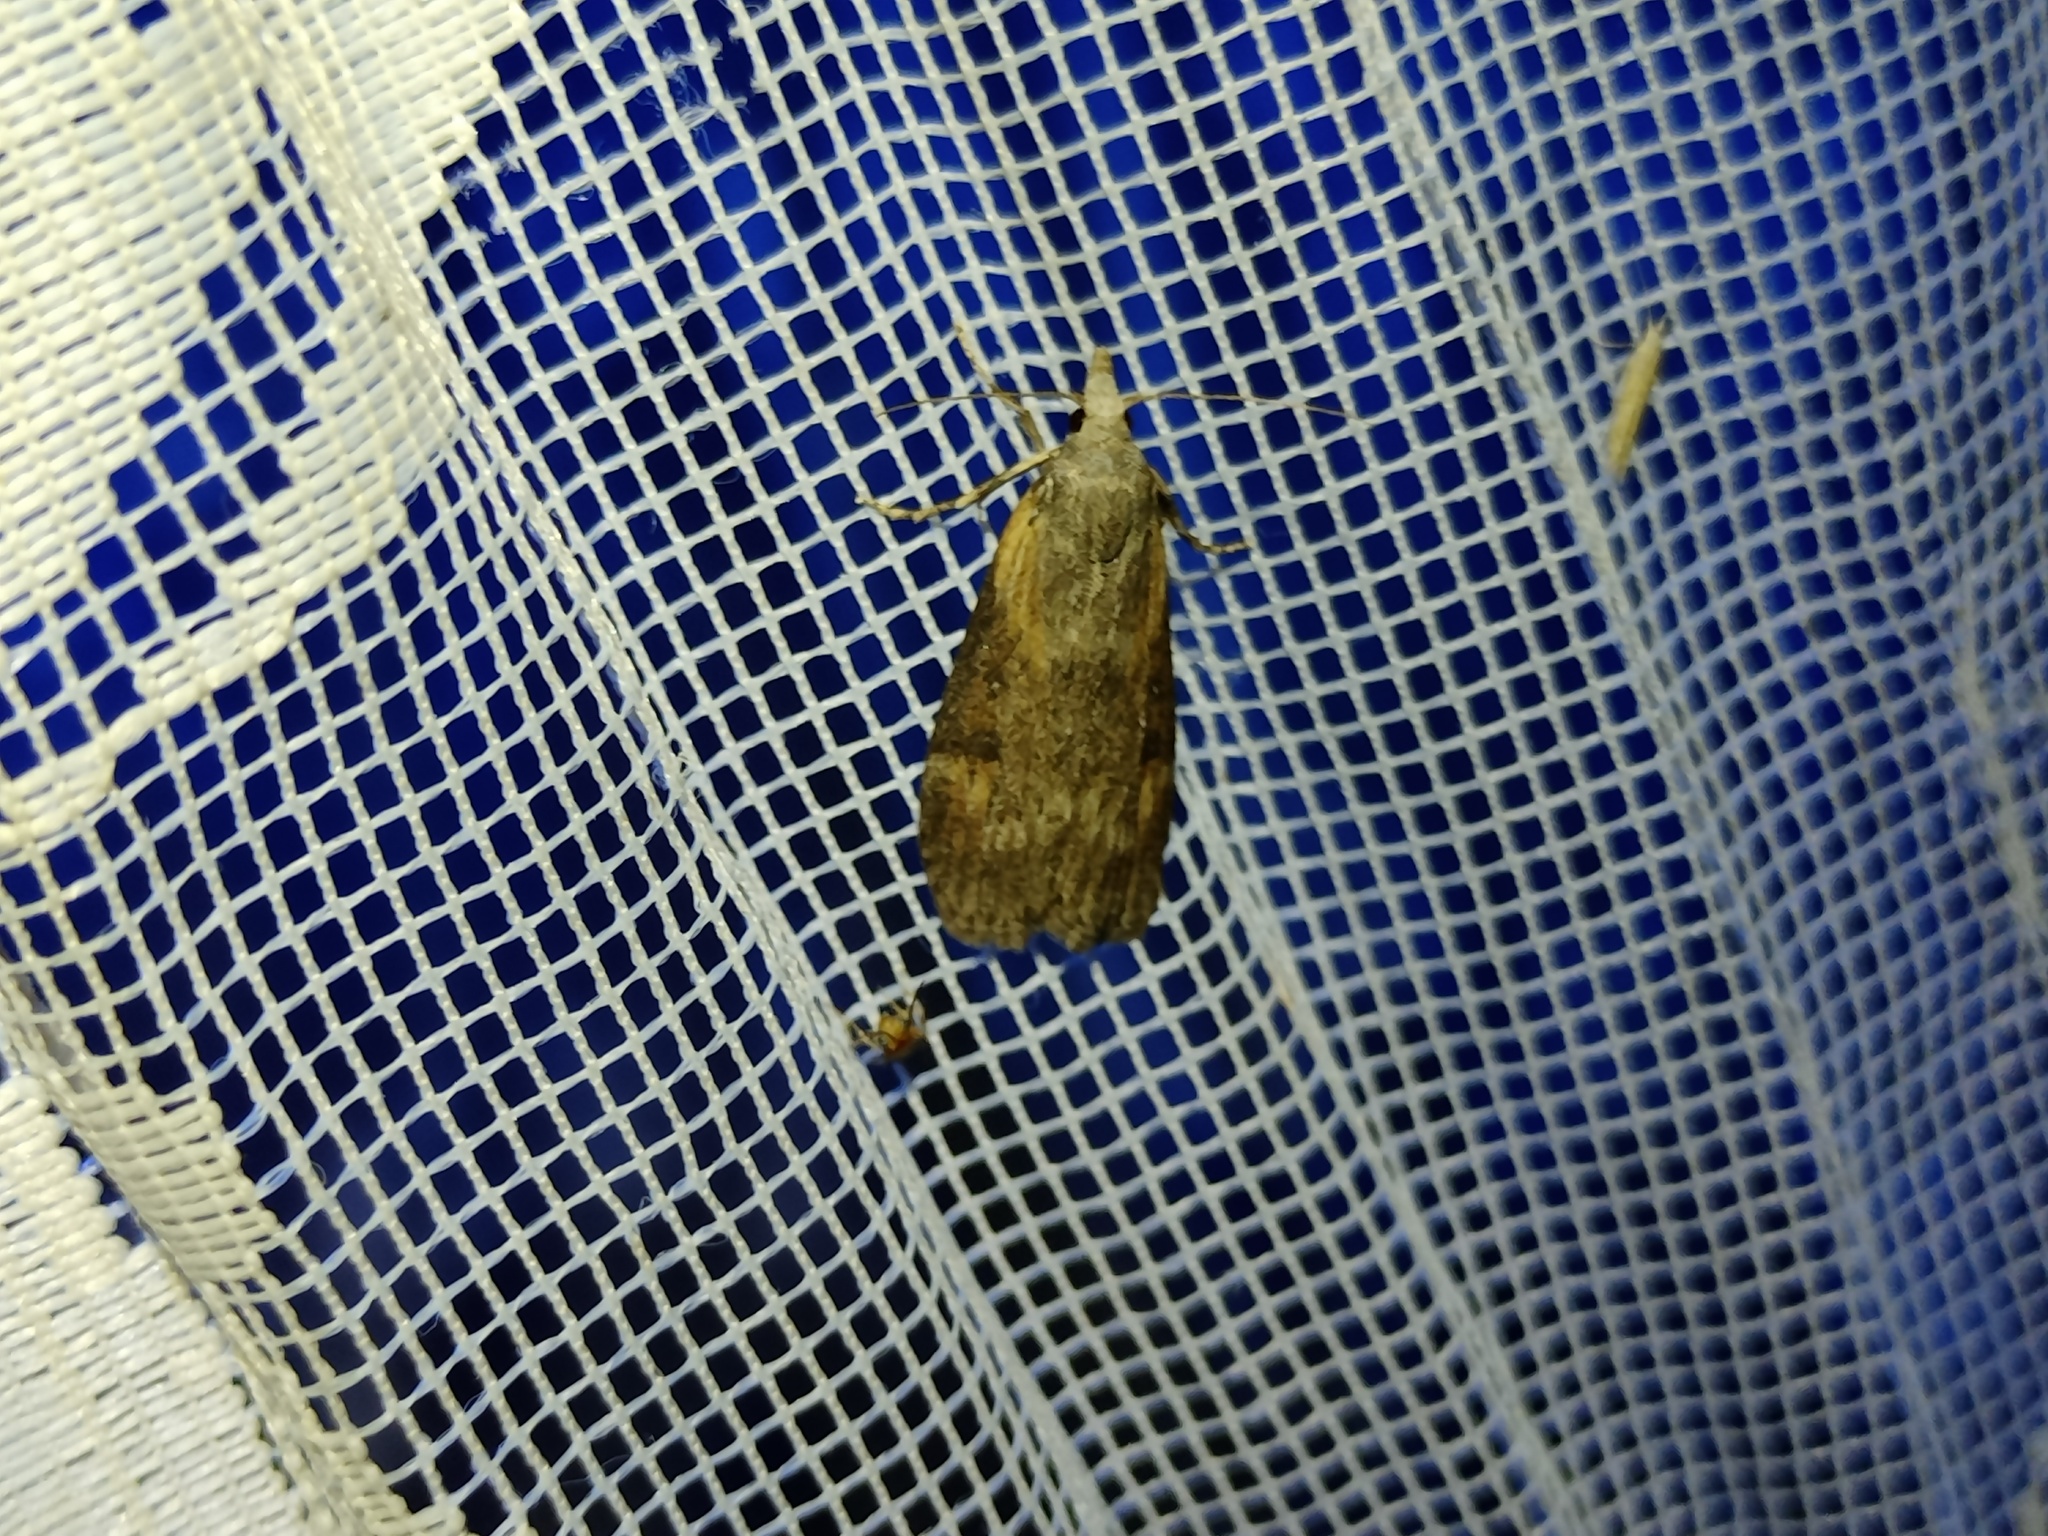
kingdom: Animalia
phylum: Arthropoda
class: Insecta
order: Lepidoptera
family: Pyralidae
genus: Lamoria
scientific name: Lamoria anella
